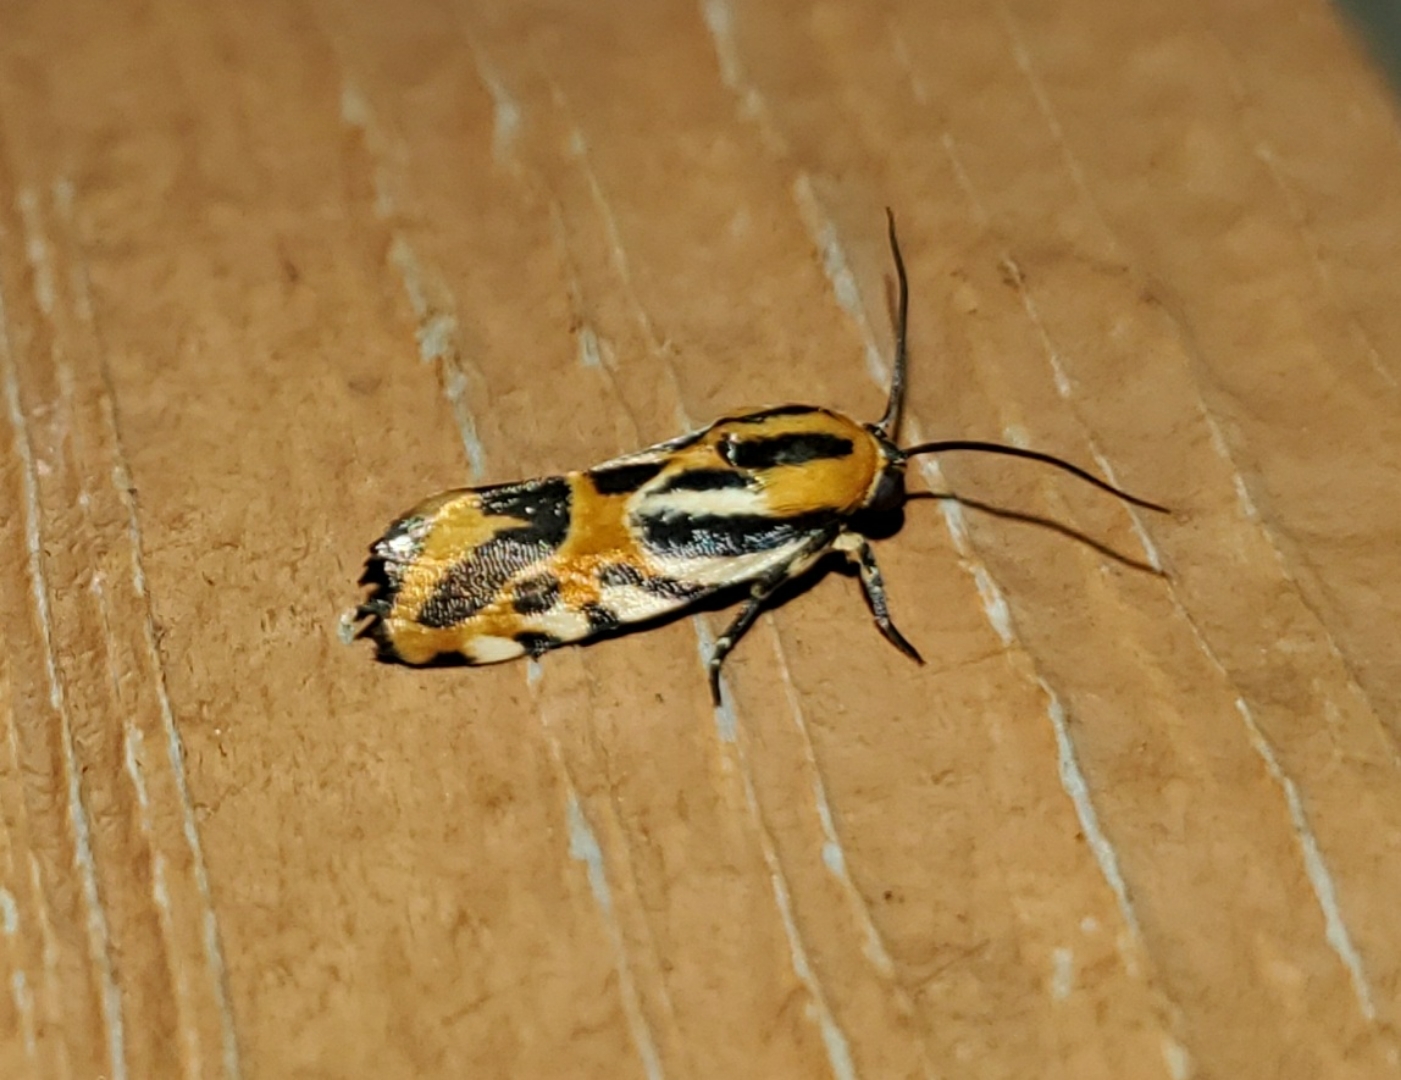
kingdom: Animalia
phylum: Arthropoda
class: Insecta
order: Lepidoptera
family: Noctuidae
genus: Acontia
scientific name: Acontia onagrus
